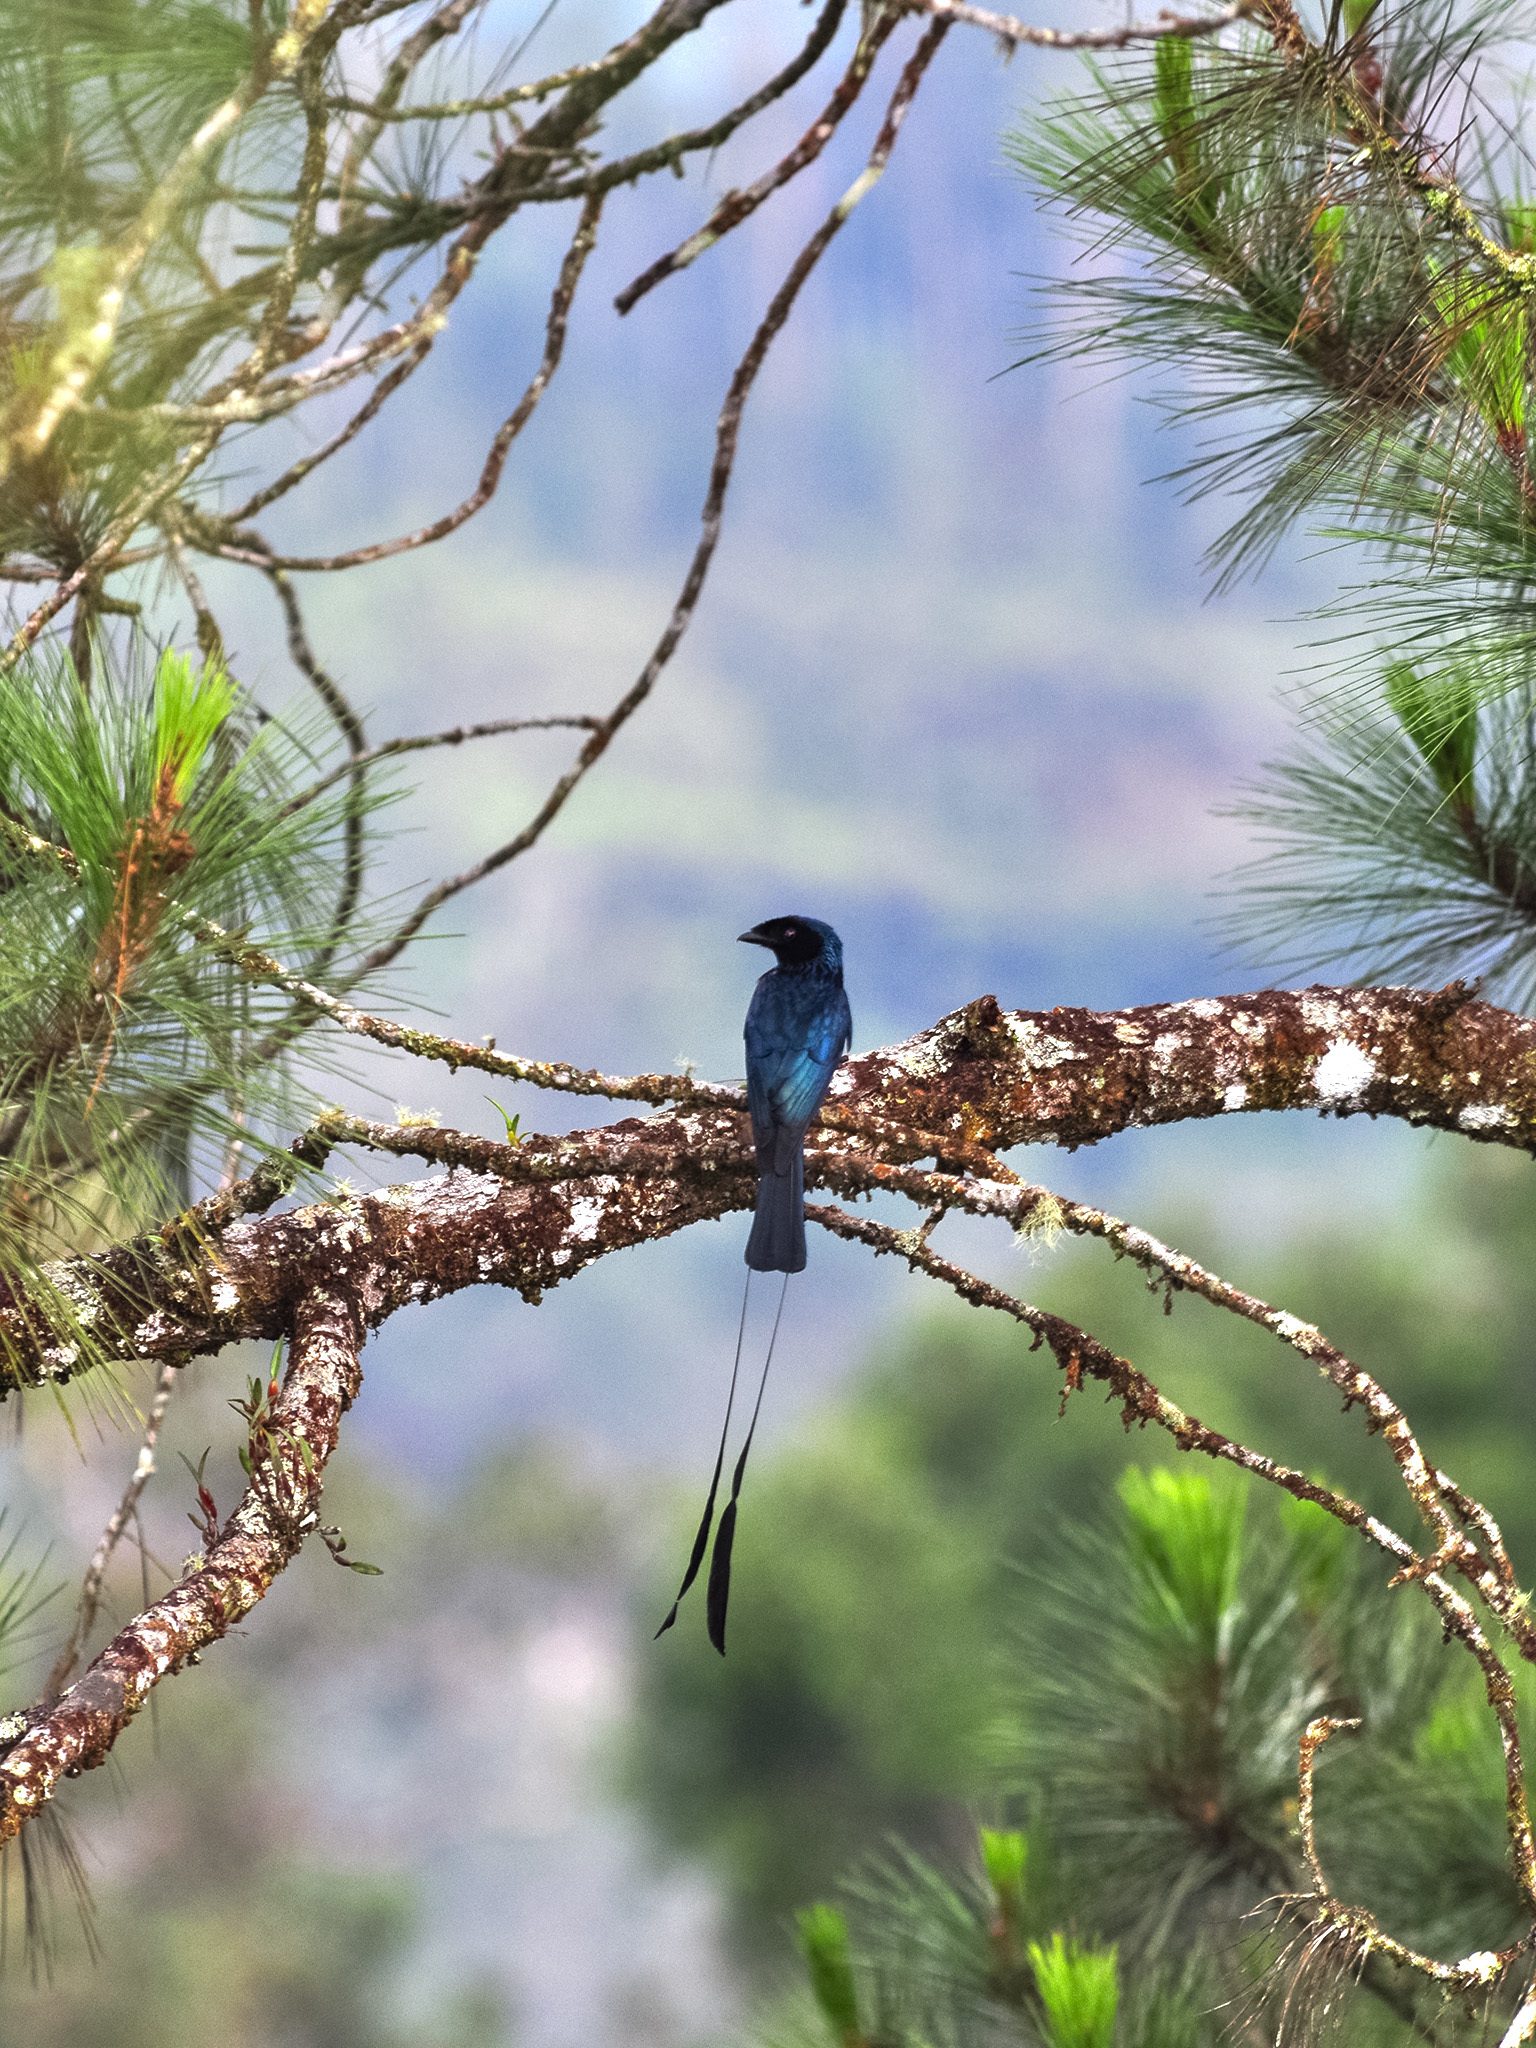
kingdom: Animalia
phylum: Chordata
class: Aves
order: Passeriformes
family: Dicruridae
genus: Dicrurus
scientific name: Dicrurus remifer
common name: Lesser racket-tailed drongo
